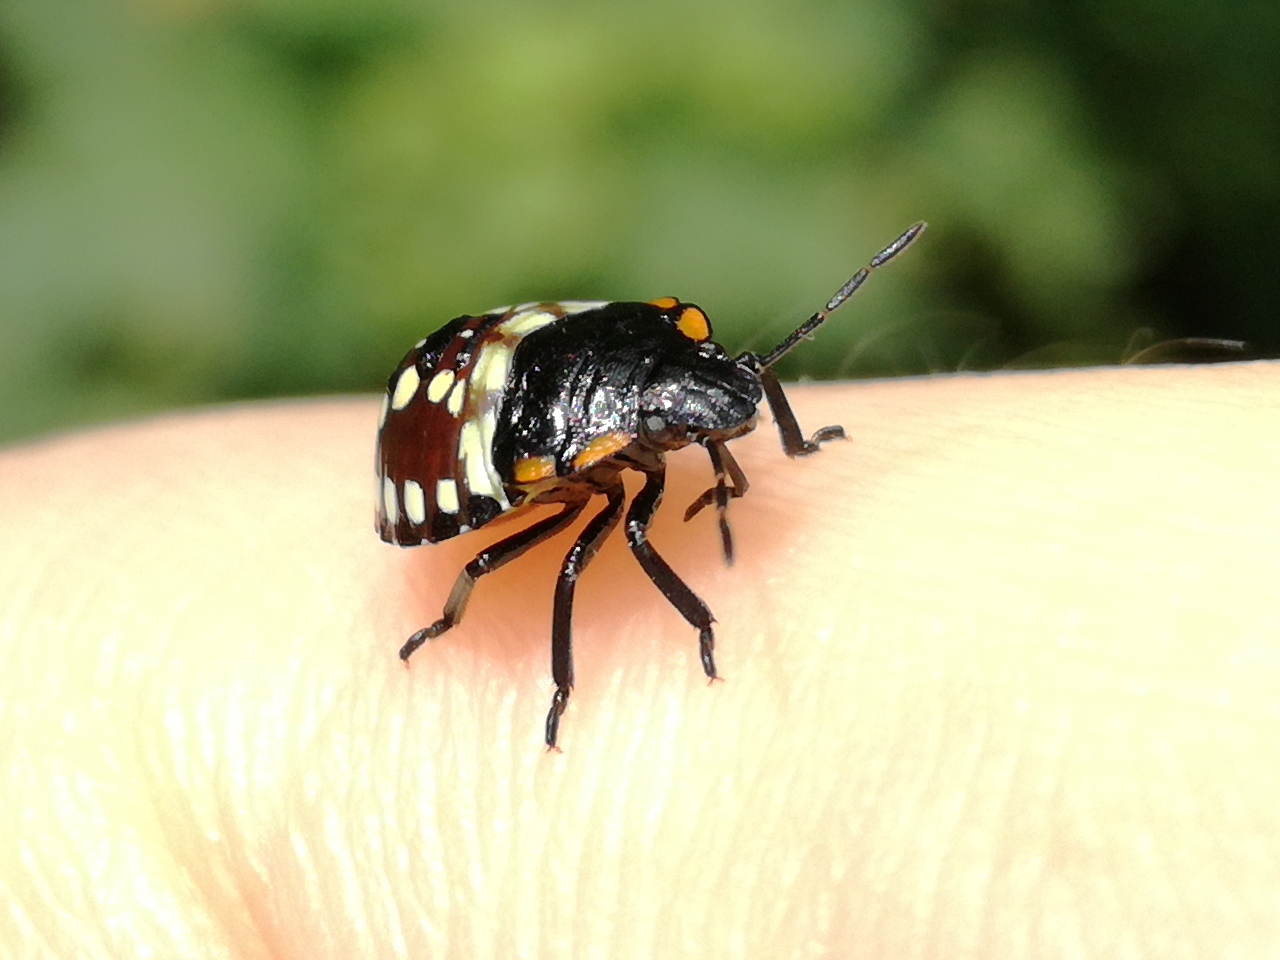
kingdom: Animalia
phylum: Arthropoda
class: Insecta
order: Hemiptera
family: Pentatomidae
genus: Nezara
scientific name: Nezara viridula
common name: Southern green stink bug
